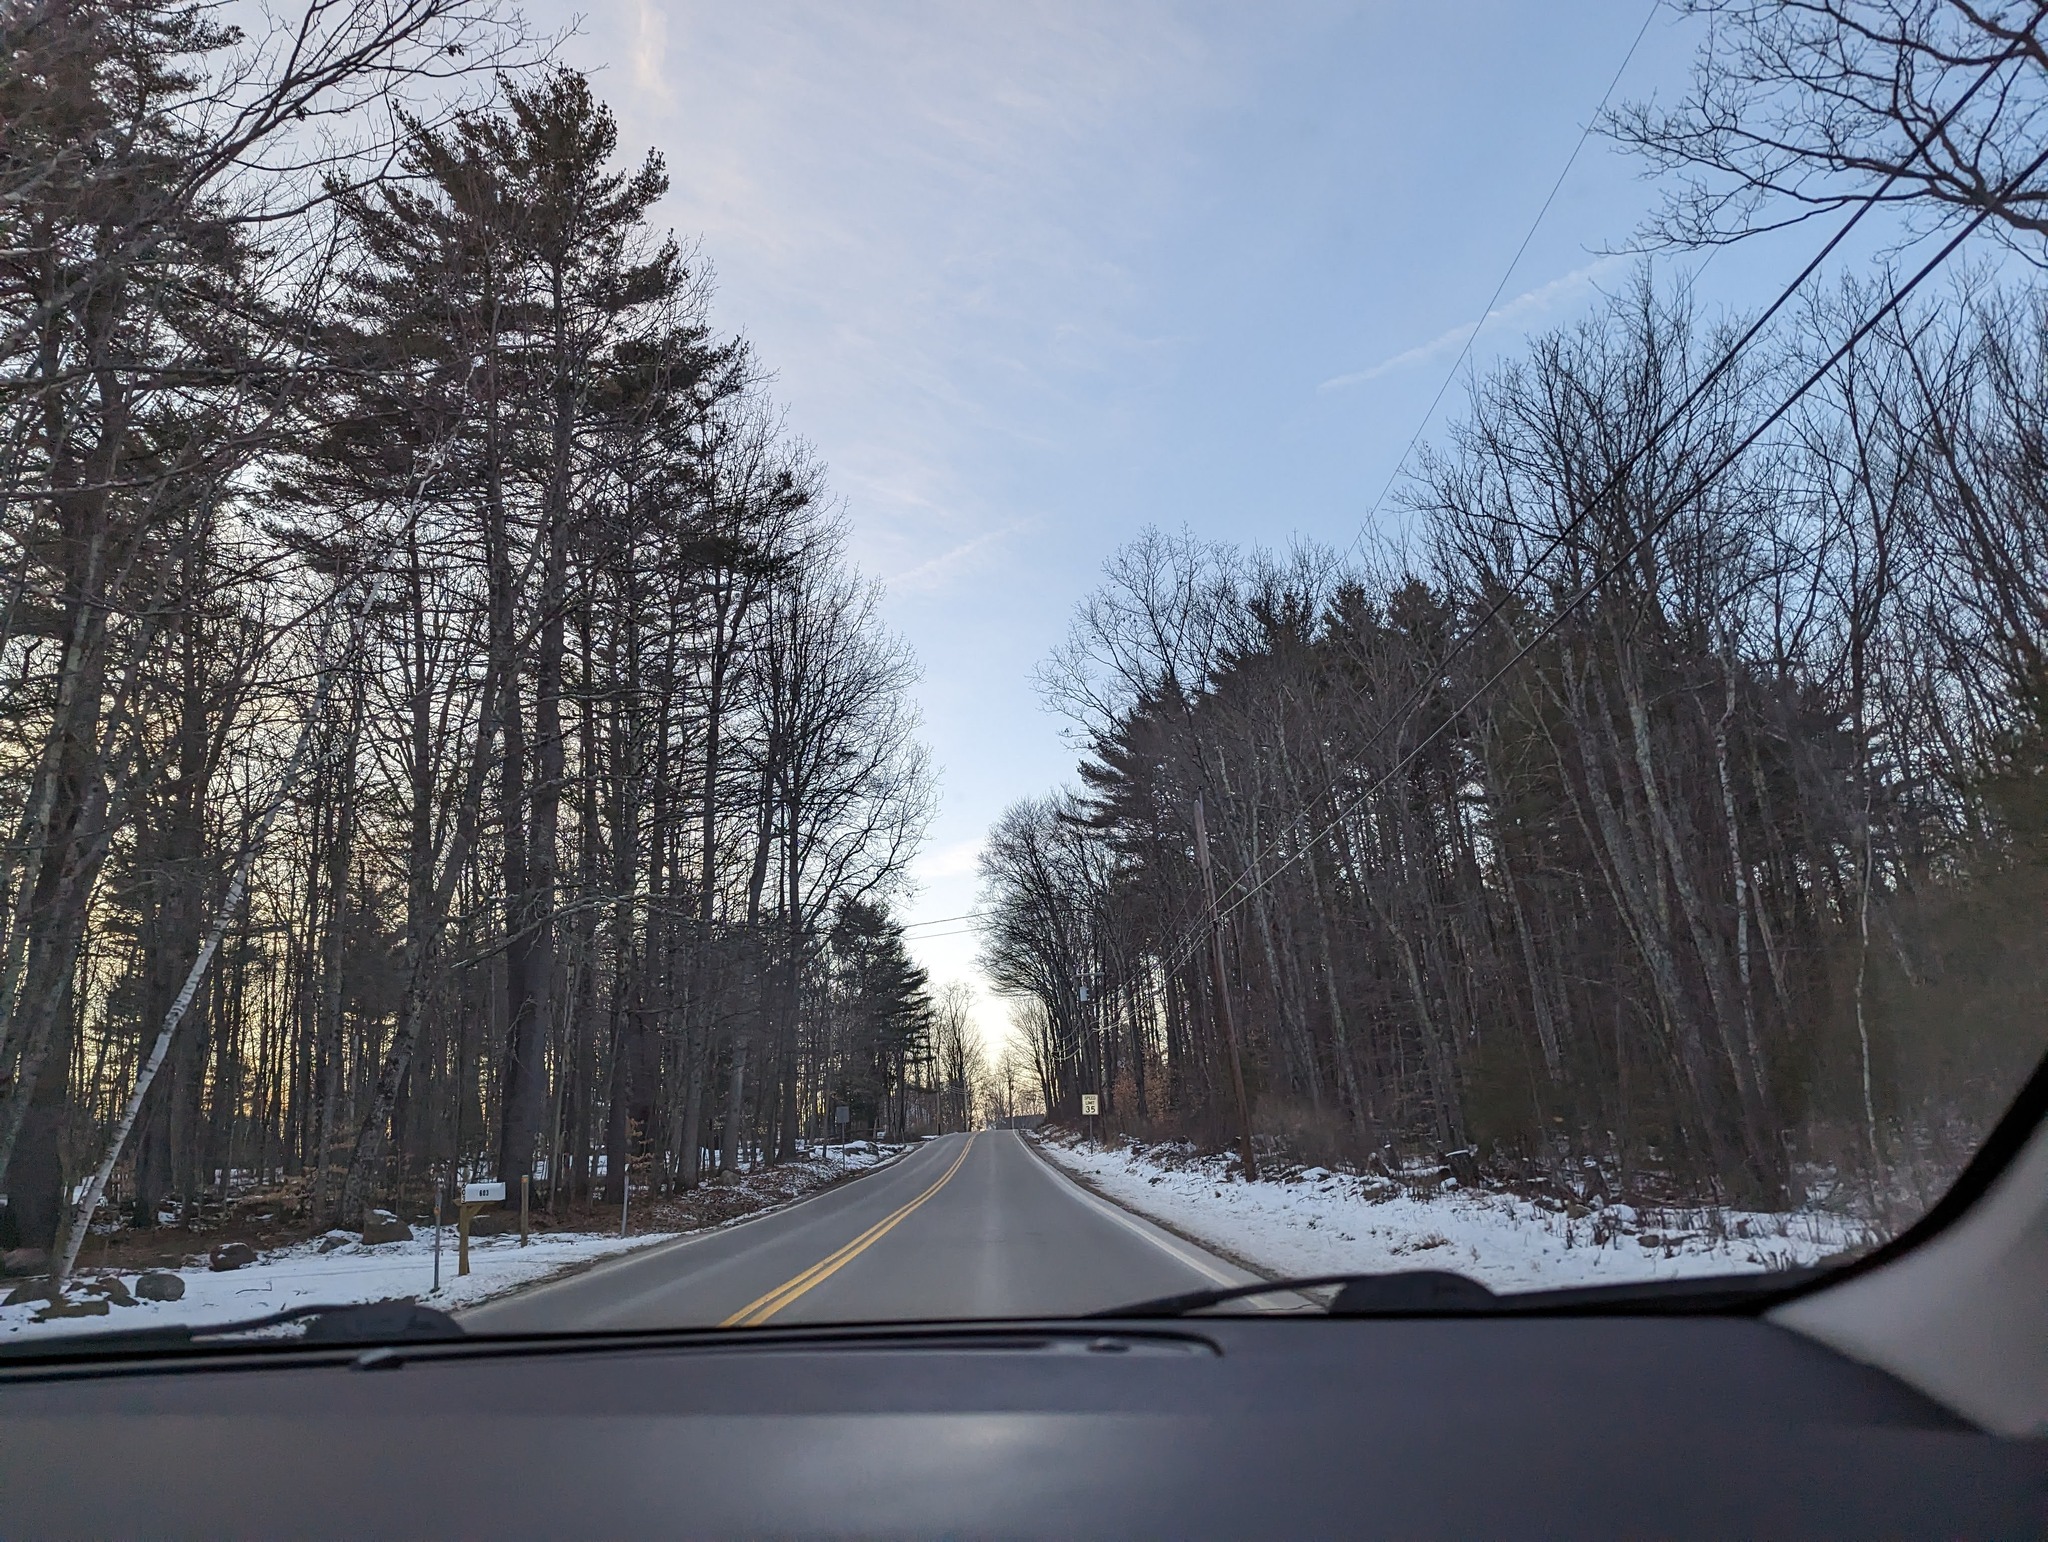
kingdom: Plantae
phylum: Tracheophyta
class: Pinopsida
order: Pinales
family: Pinaceae
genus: Pinus
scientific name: Pinus strobus
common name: Weymouth pine
